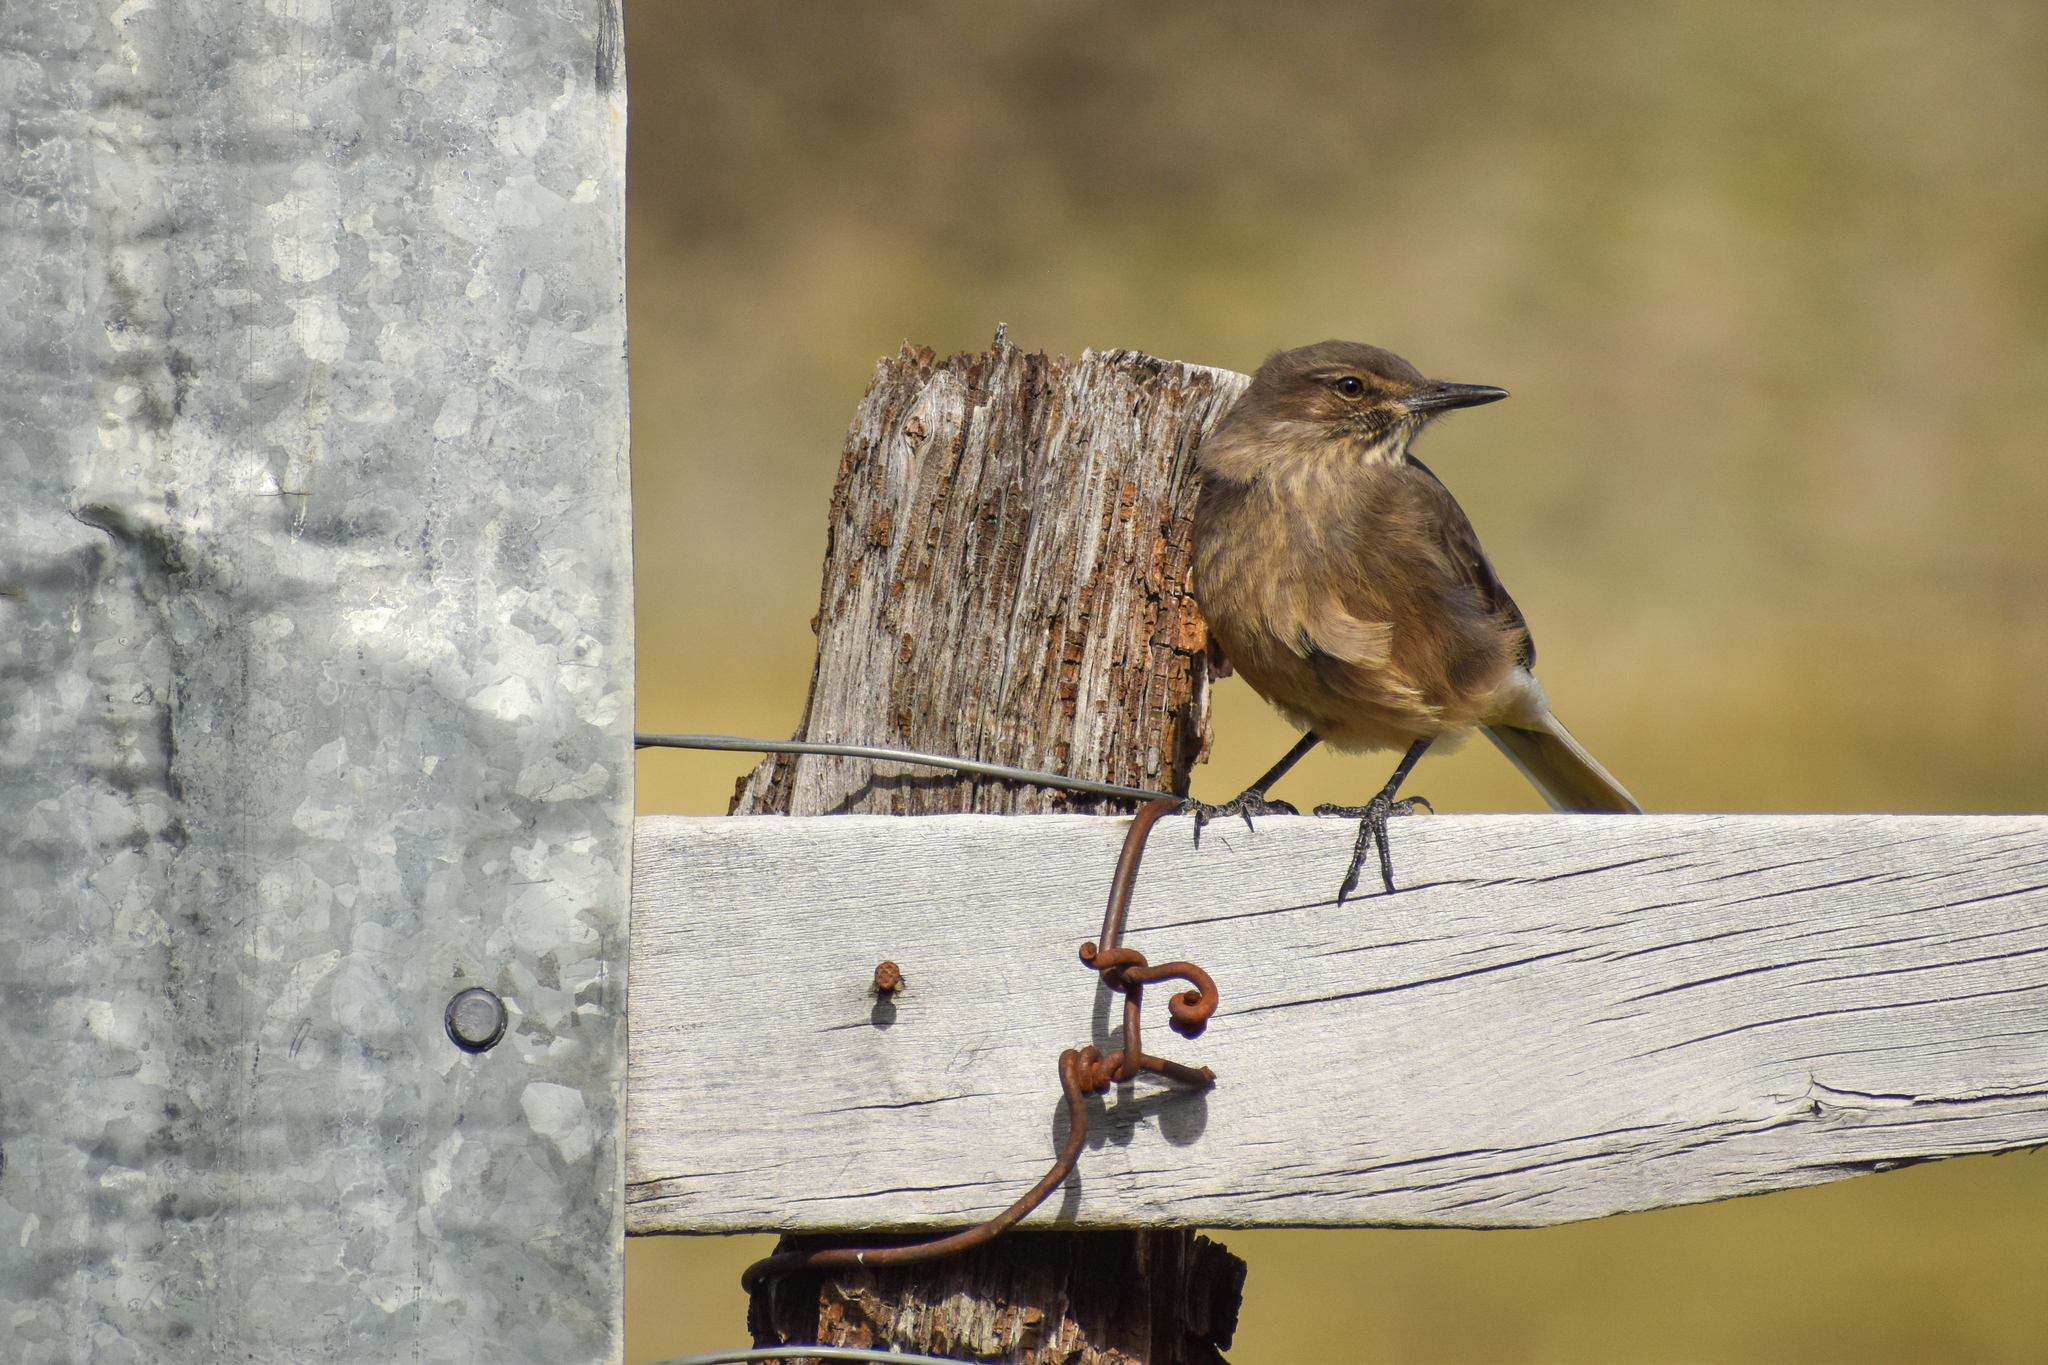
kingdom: Animalia
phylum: Chordata
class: Aves
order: Passeriformes
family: Tyrannidae
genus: Agriornis
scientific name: Agriornis montanus
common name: Black-billed shrike-tyrant
